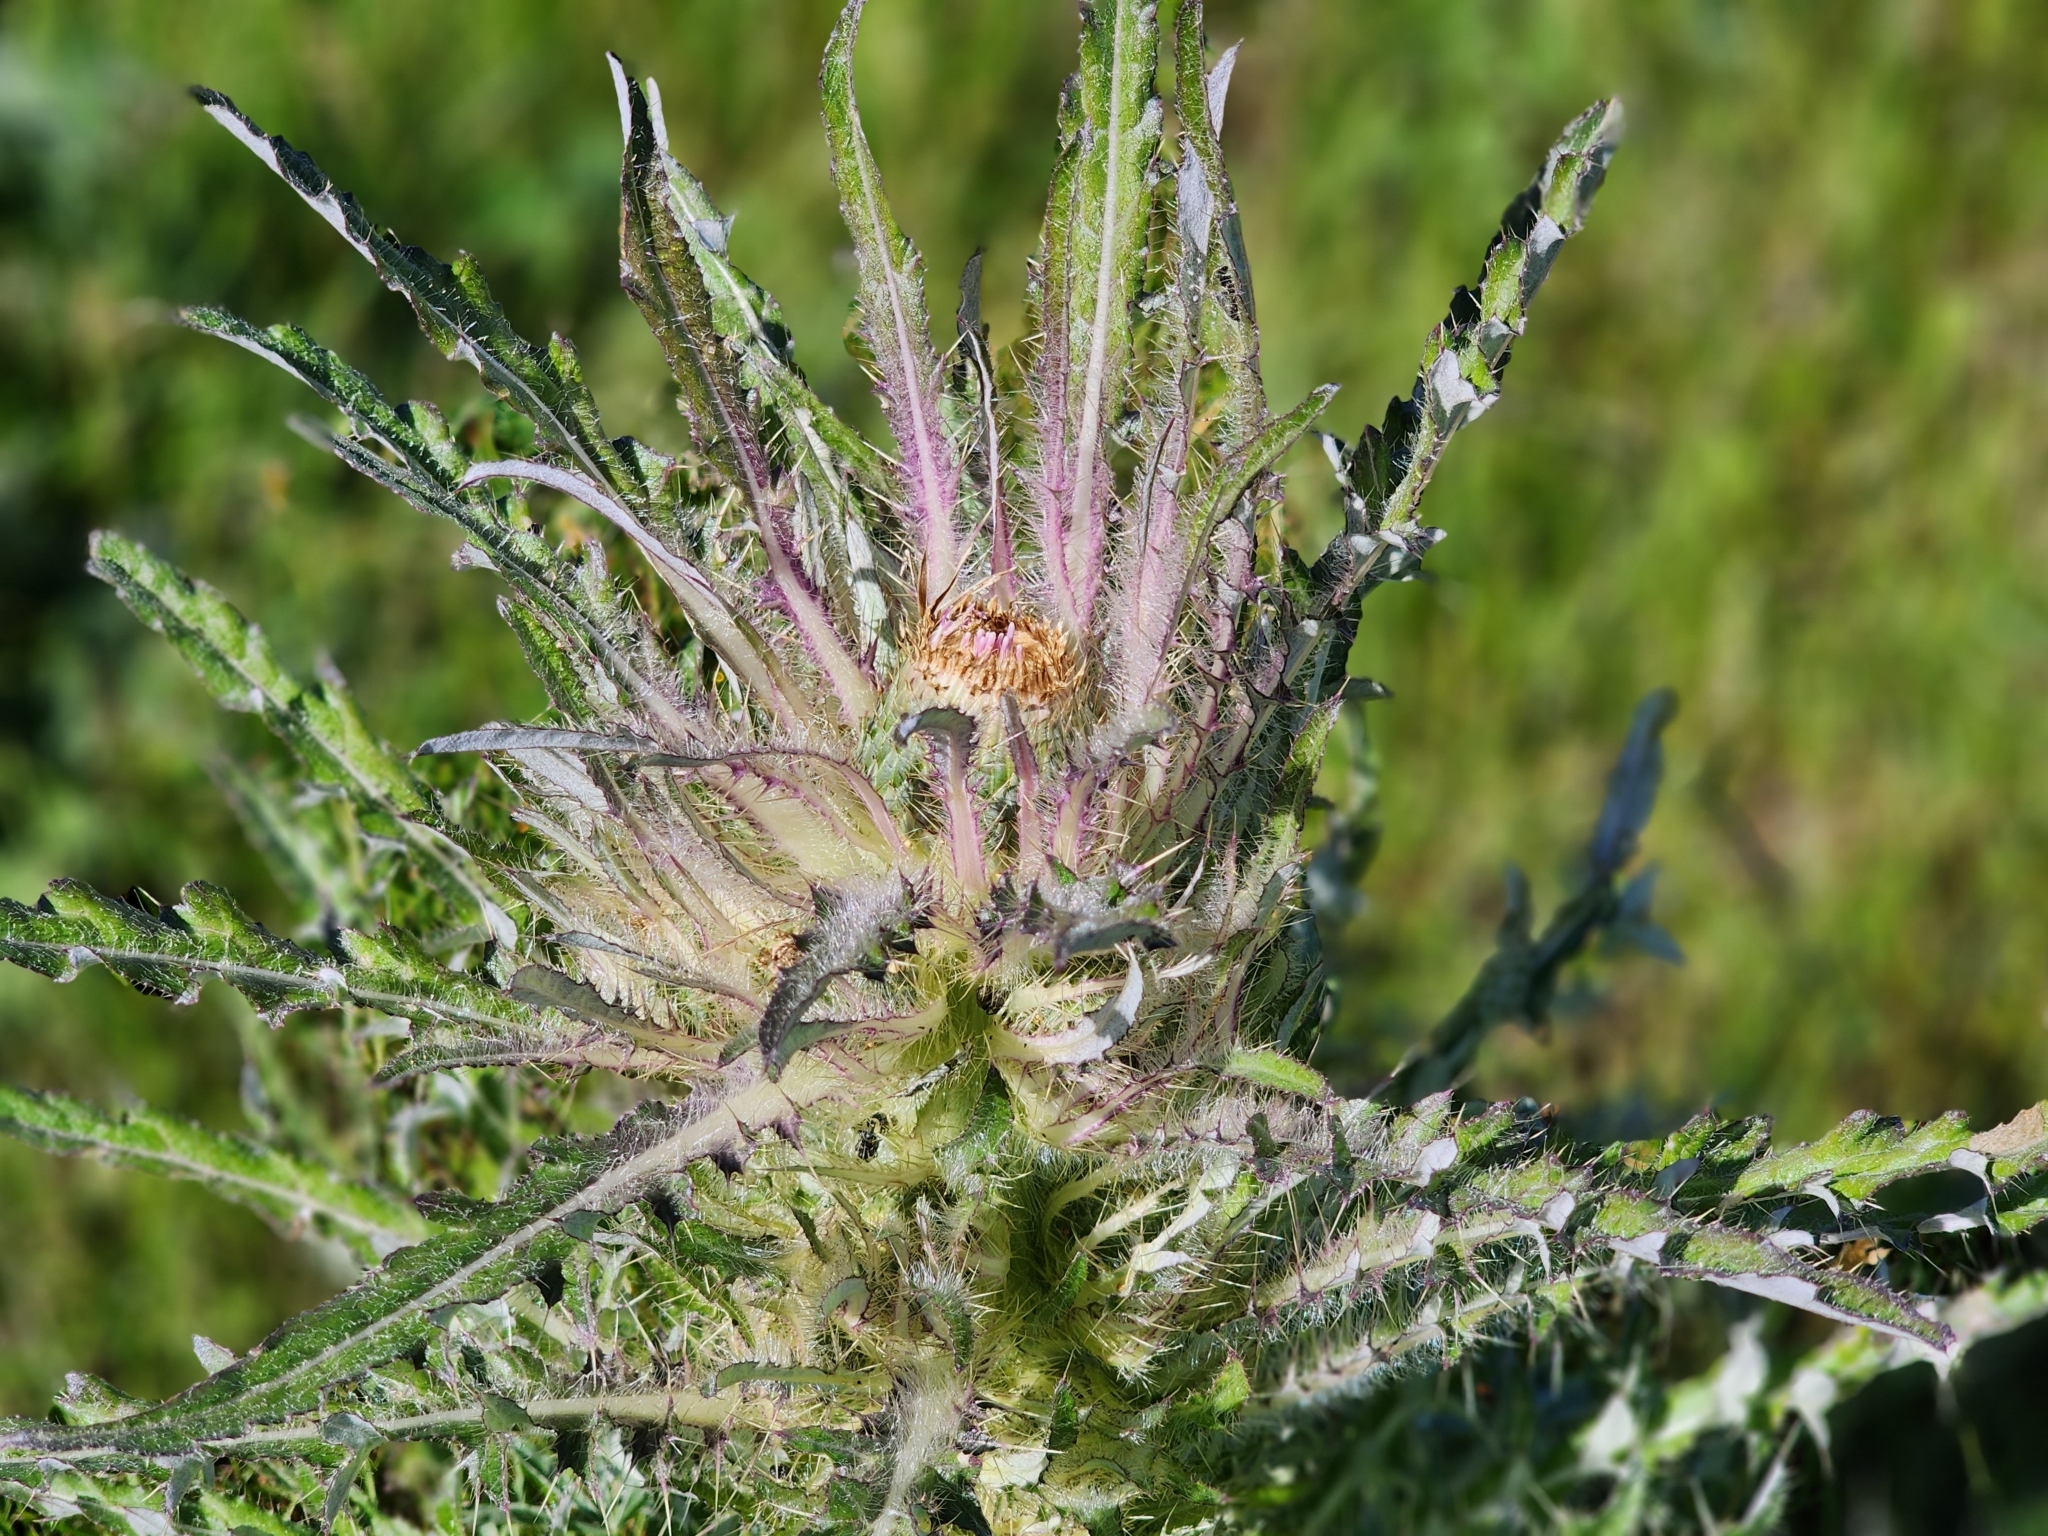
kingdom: Plantae
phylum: Tracheophyta
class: Magnoliopsida
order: Asterales
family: Asteraceae
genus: Cirsium
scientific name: Cirsium scariosum
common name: Meadow thistle
